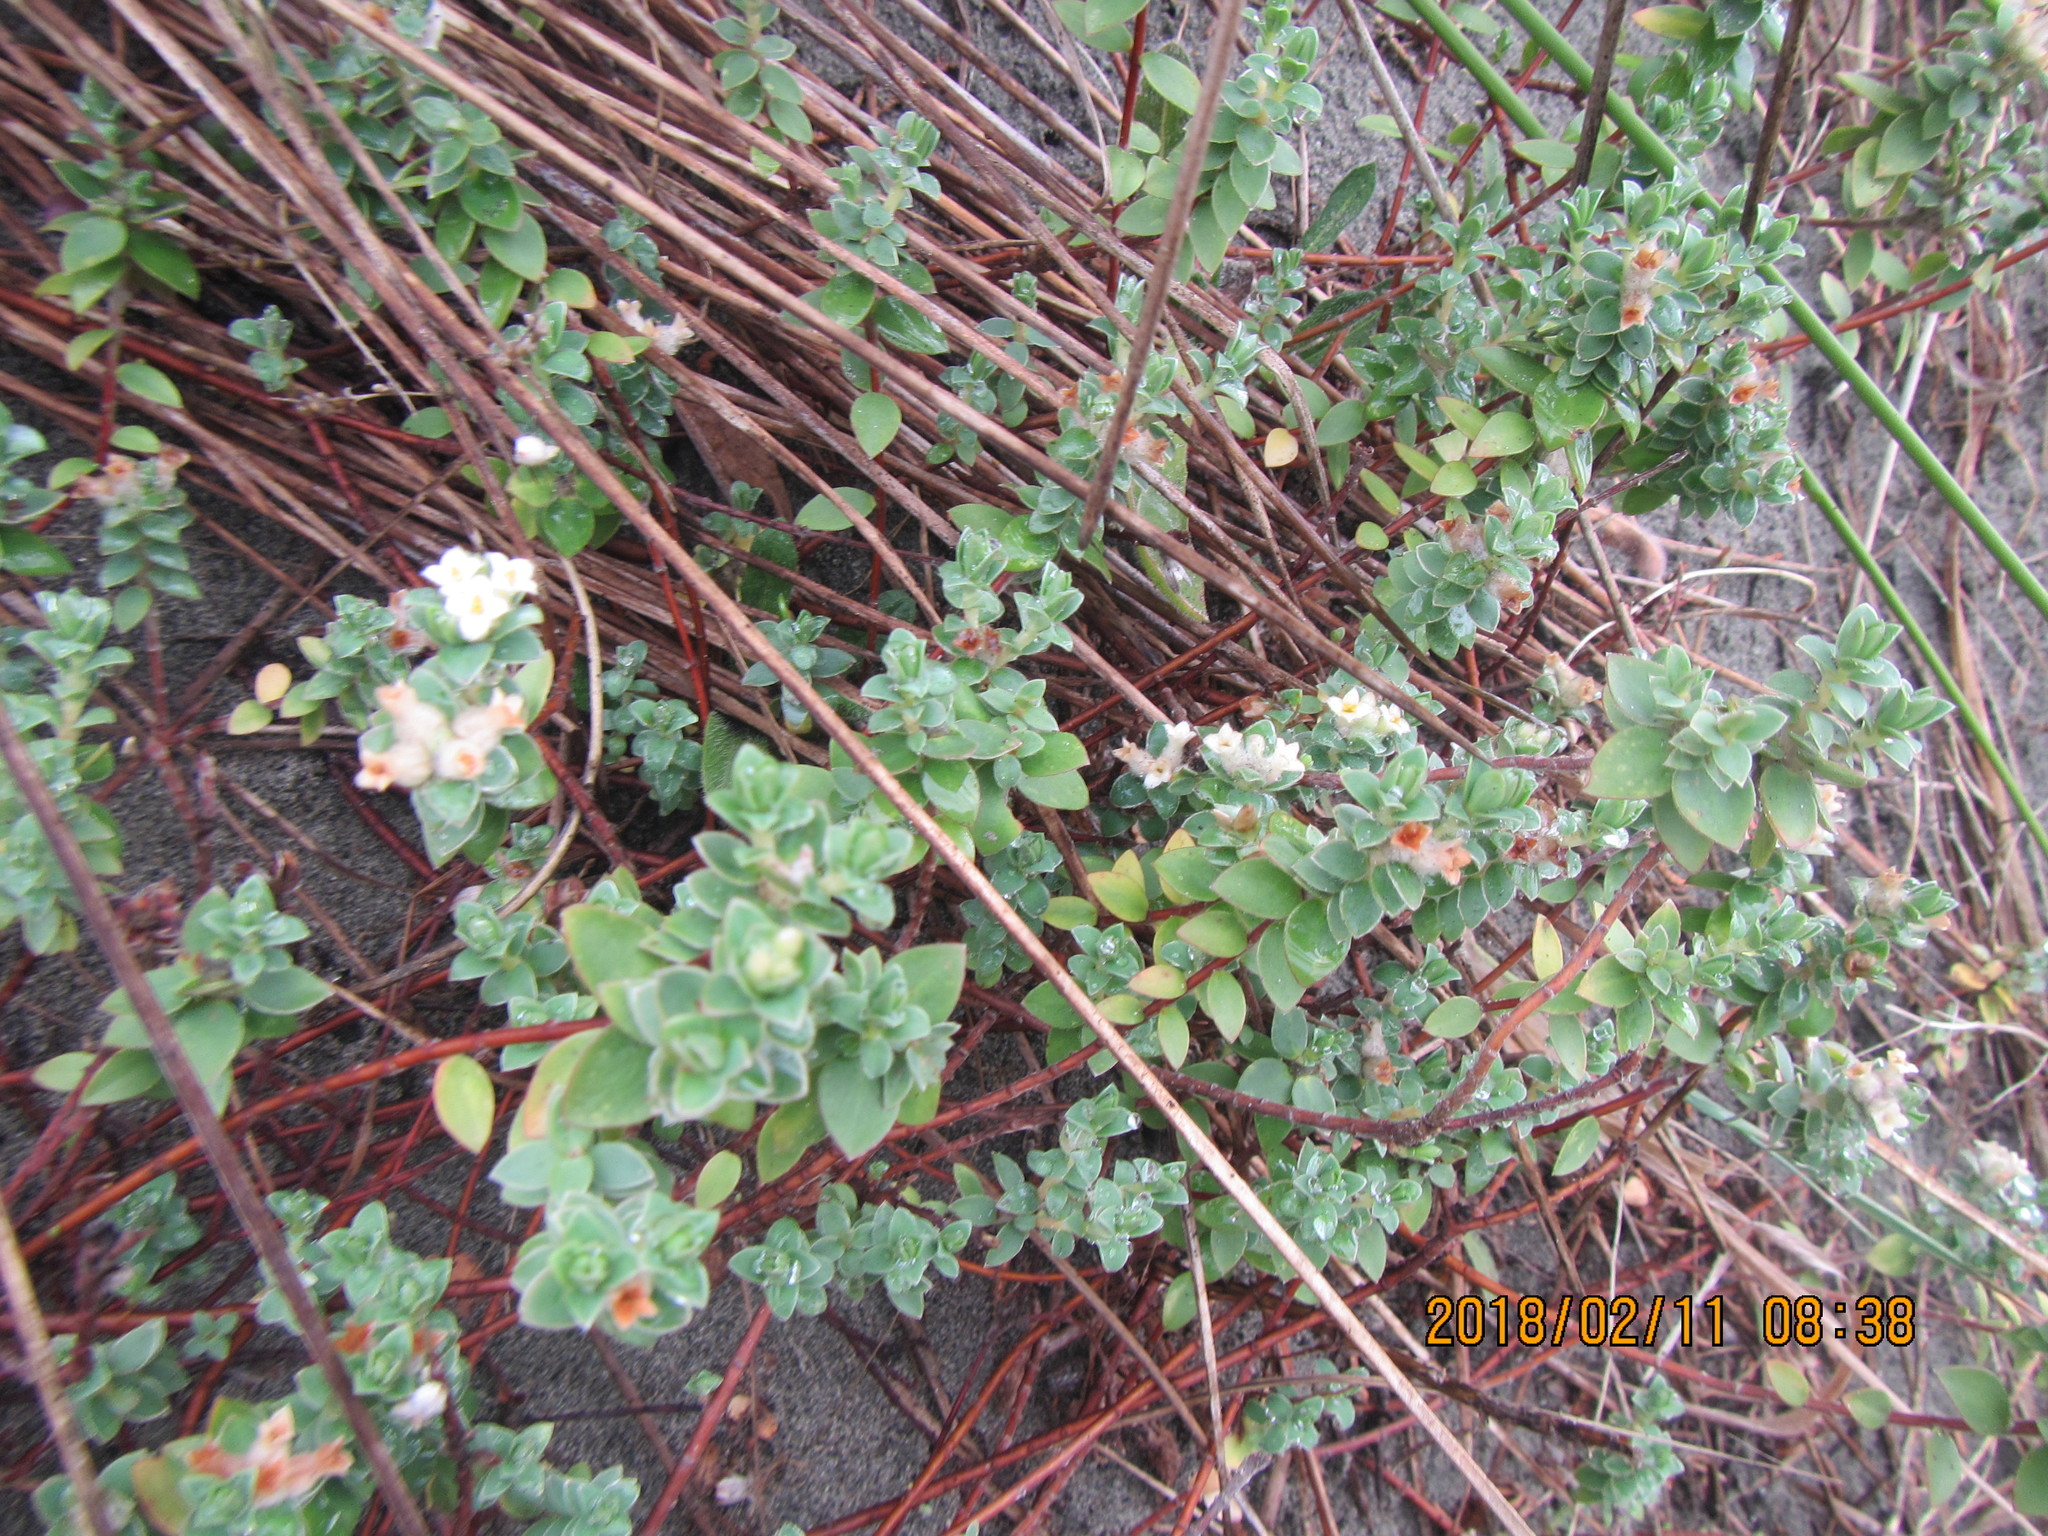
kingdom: Plantae
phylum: Tracheophyta
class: Magnoliopsida
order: Malvales
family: Thymelaeaceae
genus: Pimelea
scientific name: Pimelea villosa
